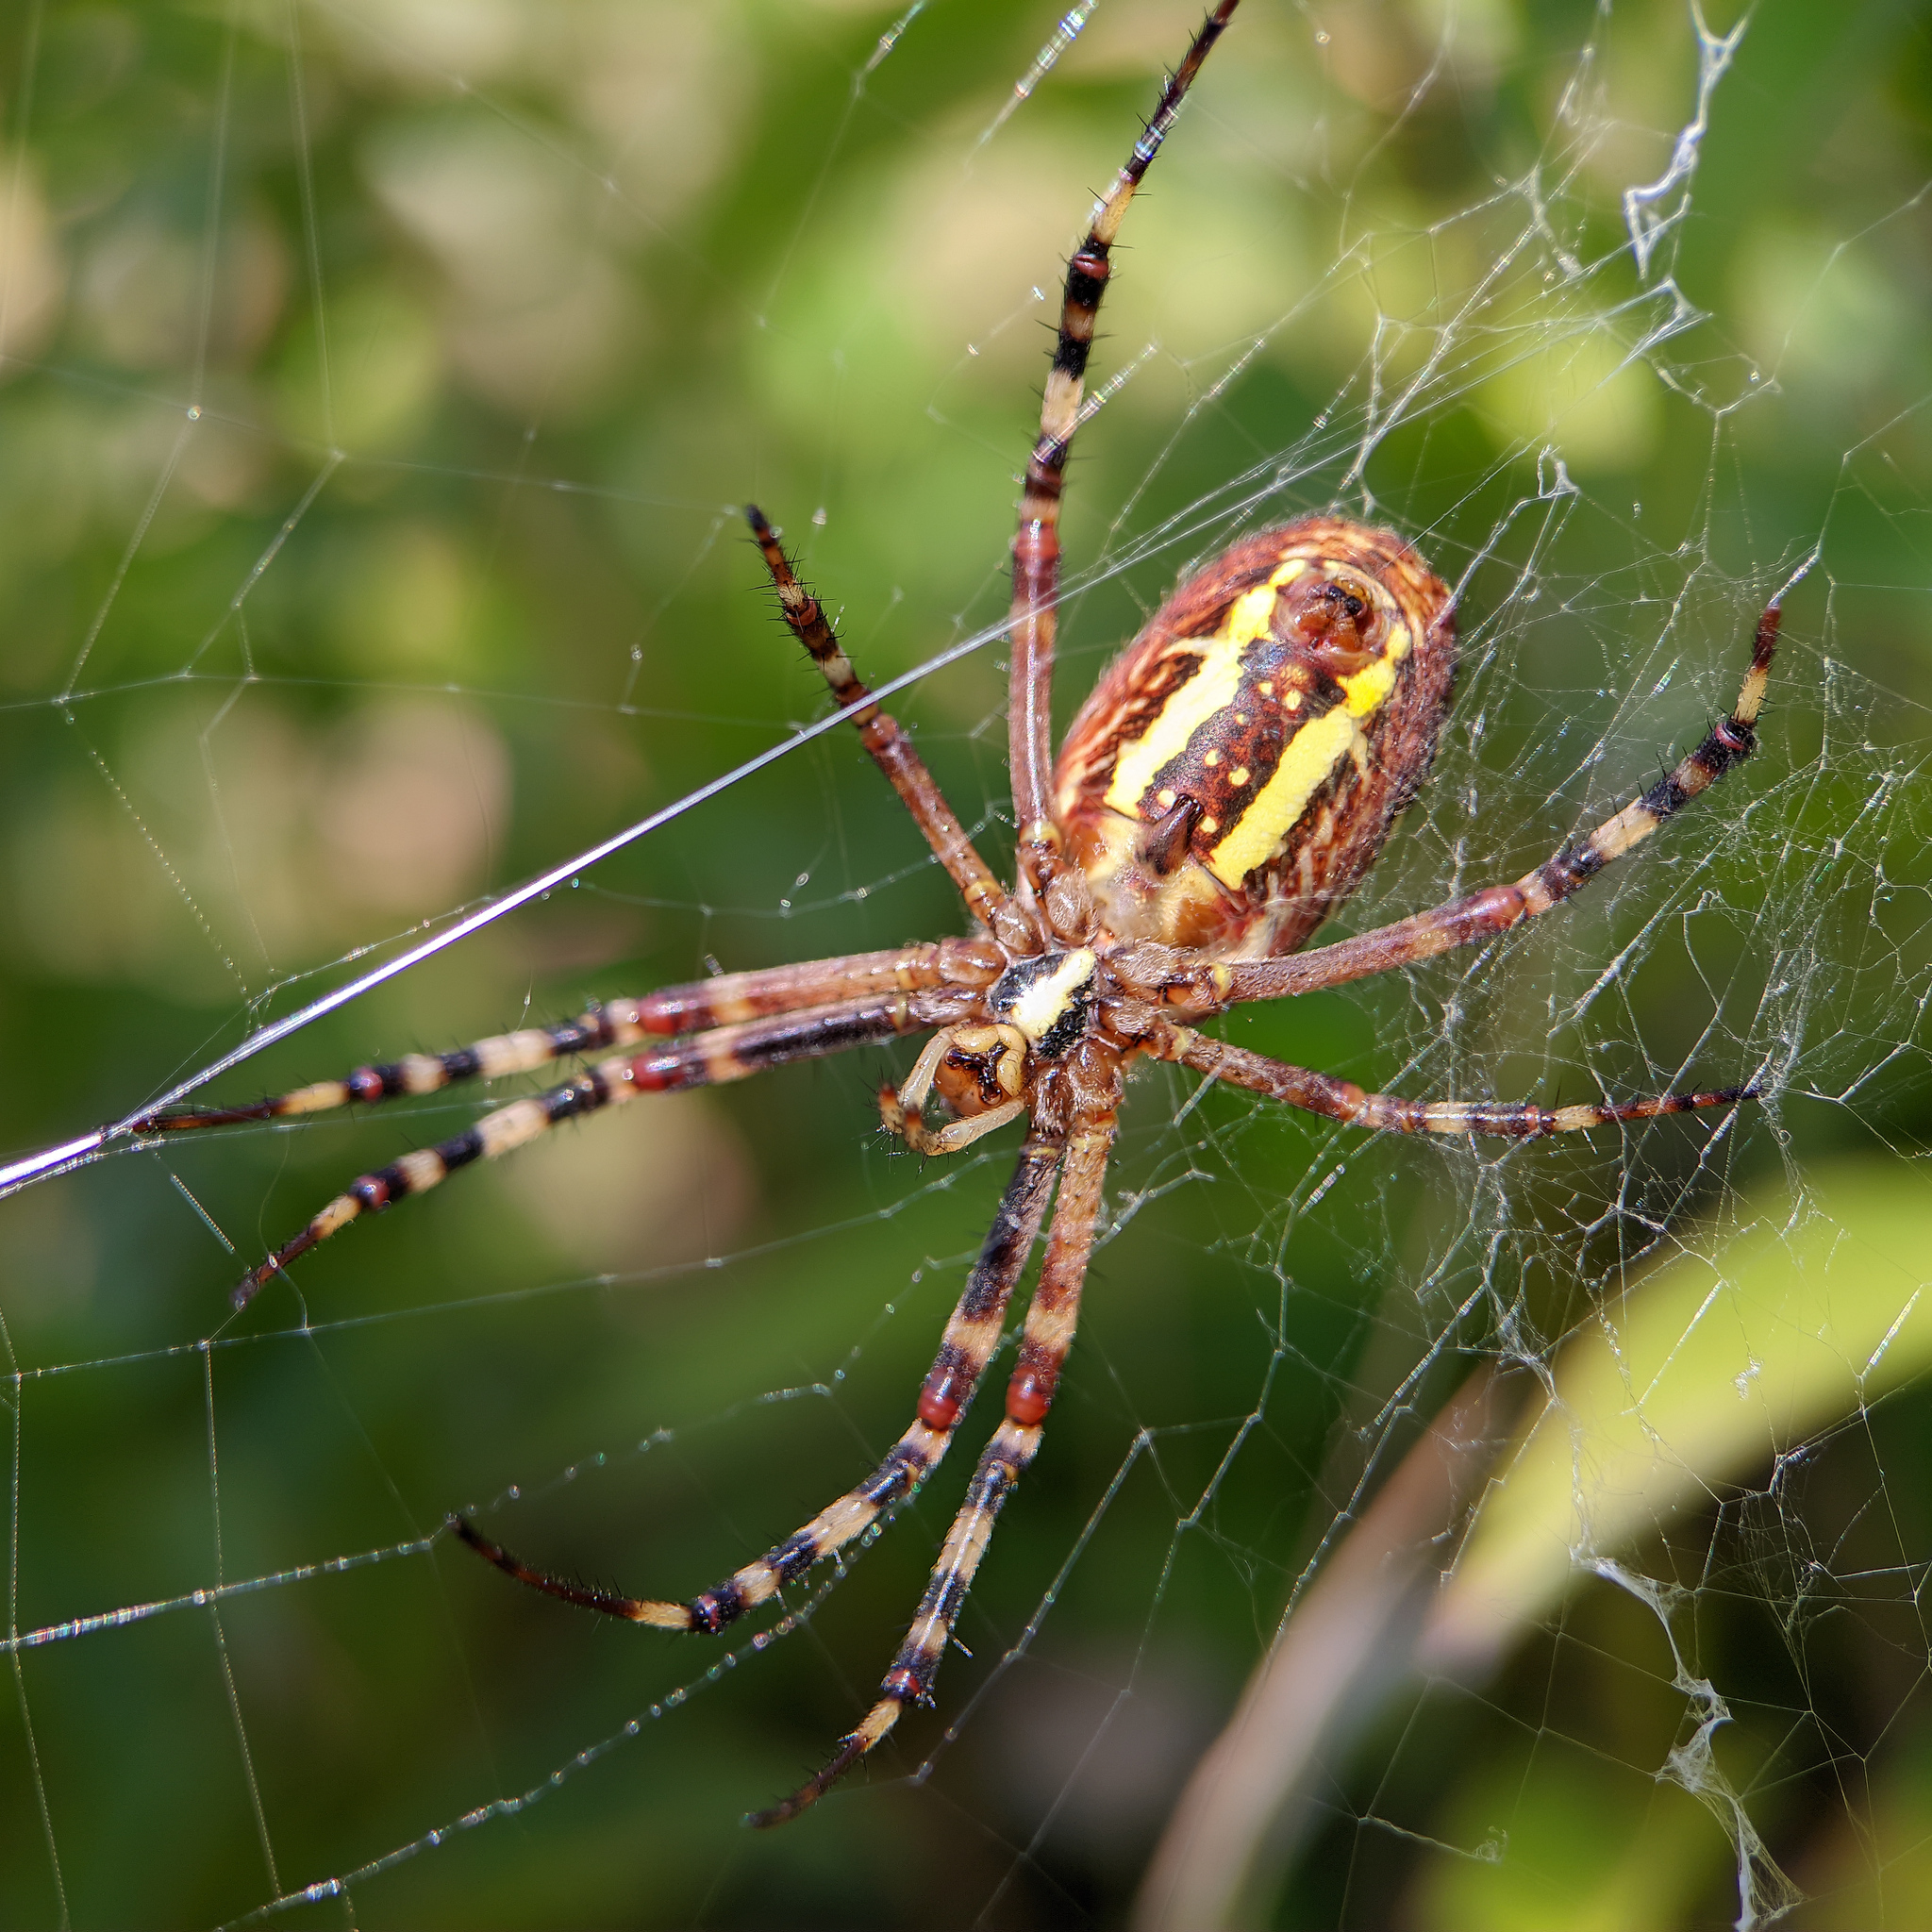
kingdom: Animalia
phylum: Arthropoda
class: Arachnida
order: Araneae
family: Araneidae
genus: Argiope
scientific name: Argiope bruennichi
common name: Wasp spider
